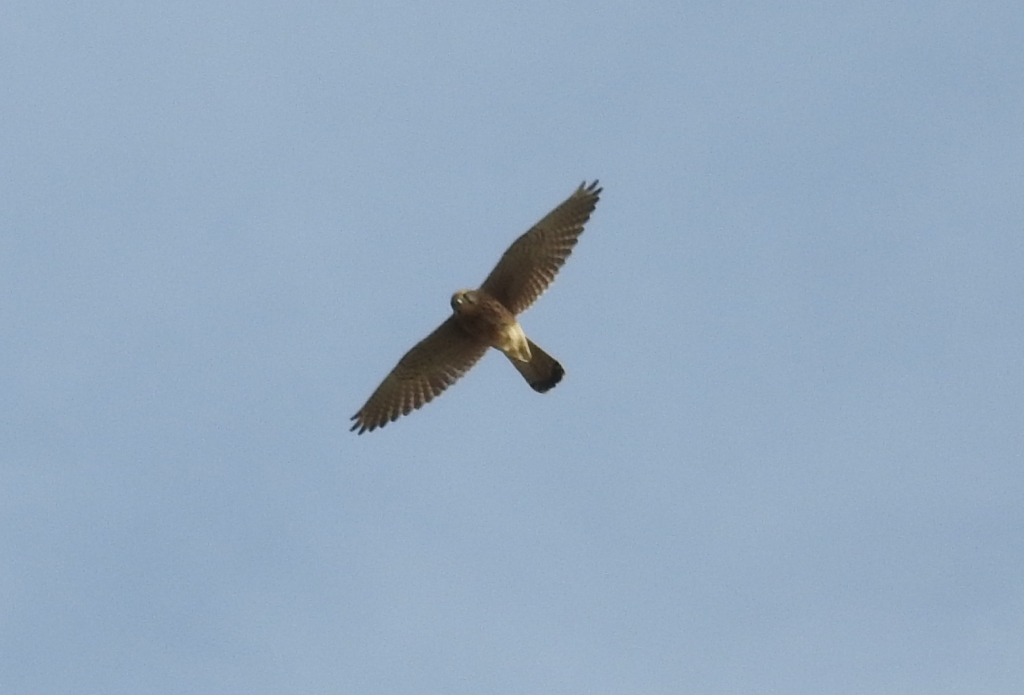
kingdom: Animalia
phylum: Chordata
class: Aves
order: Falconiformes
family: Falconidae
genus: Falco
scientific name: Falco tinnunculus
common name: Common kestrel
